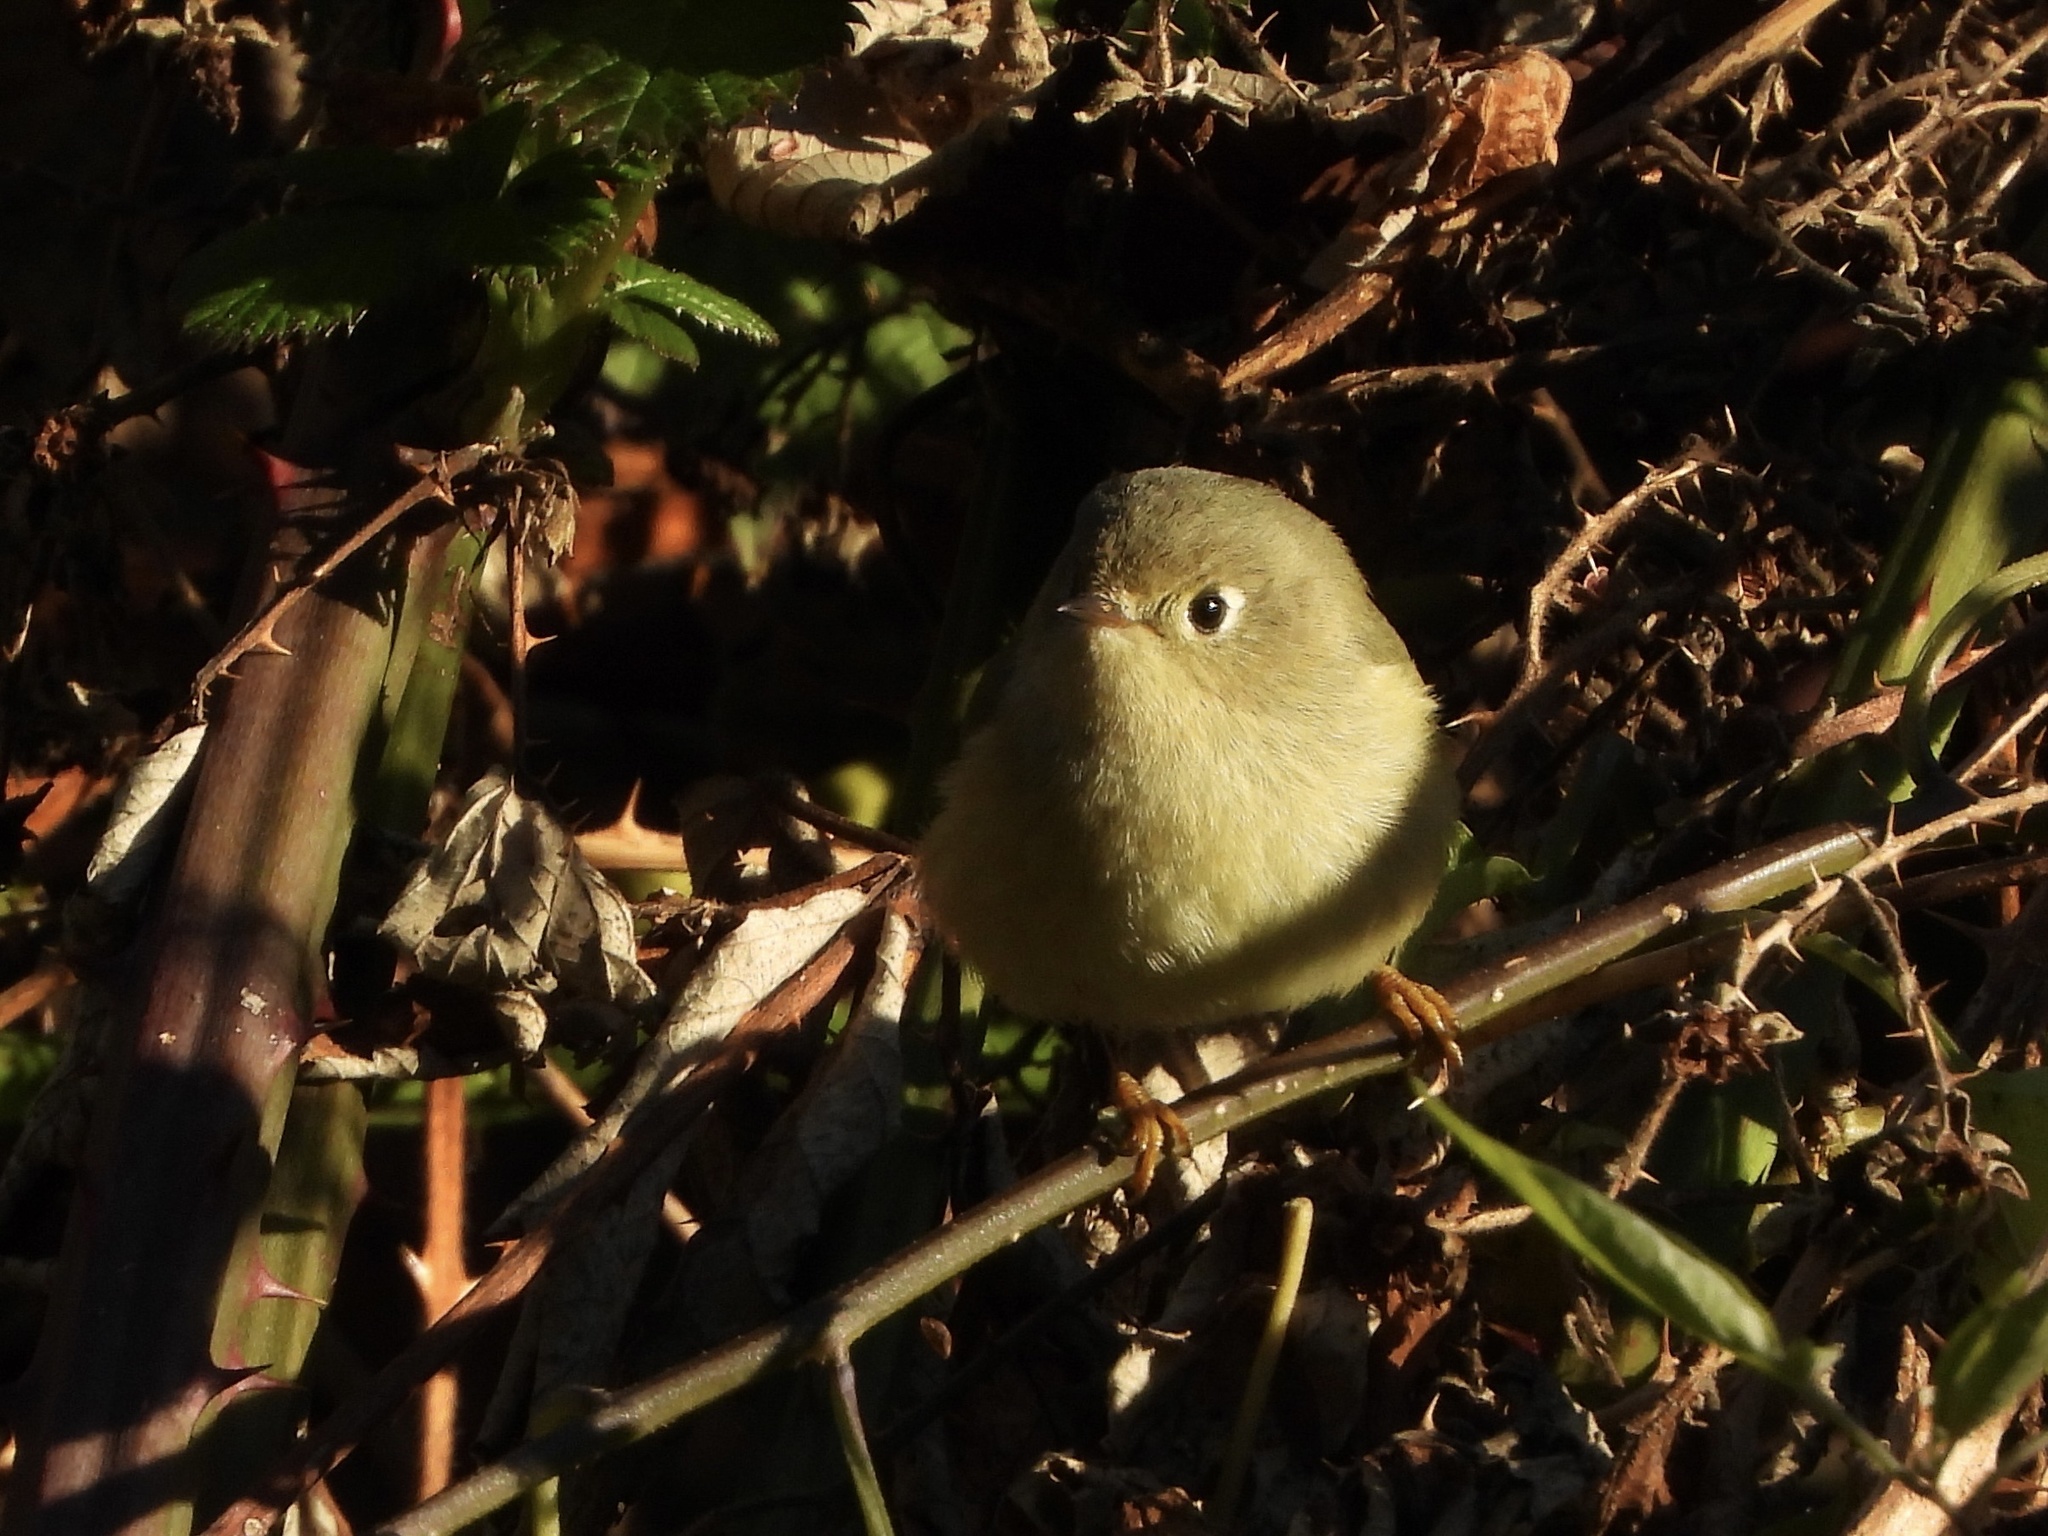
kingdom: Animalia
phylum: Chordata
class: Aves
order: Passeriformes
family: Regulidae
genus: Regulus
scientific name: Regulus calendula
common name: Ruby-crowned kinglet
